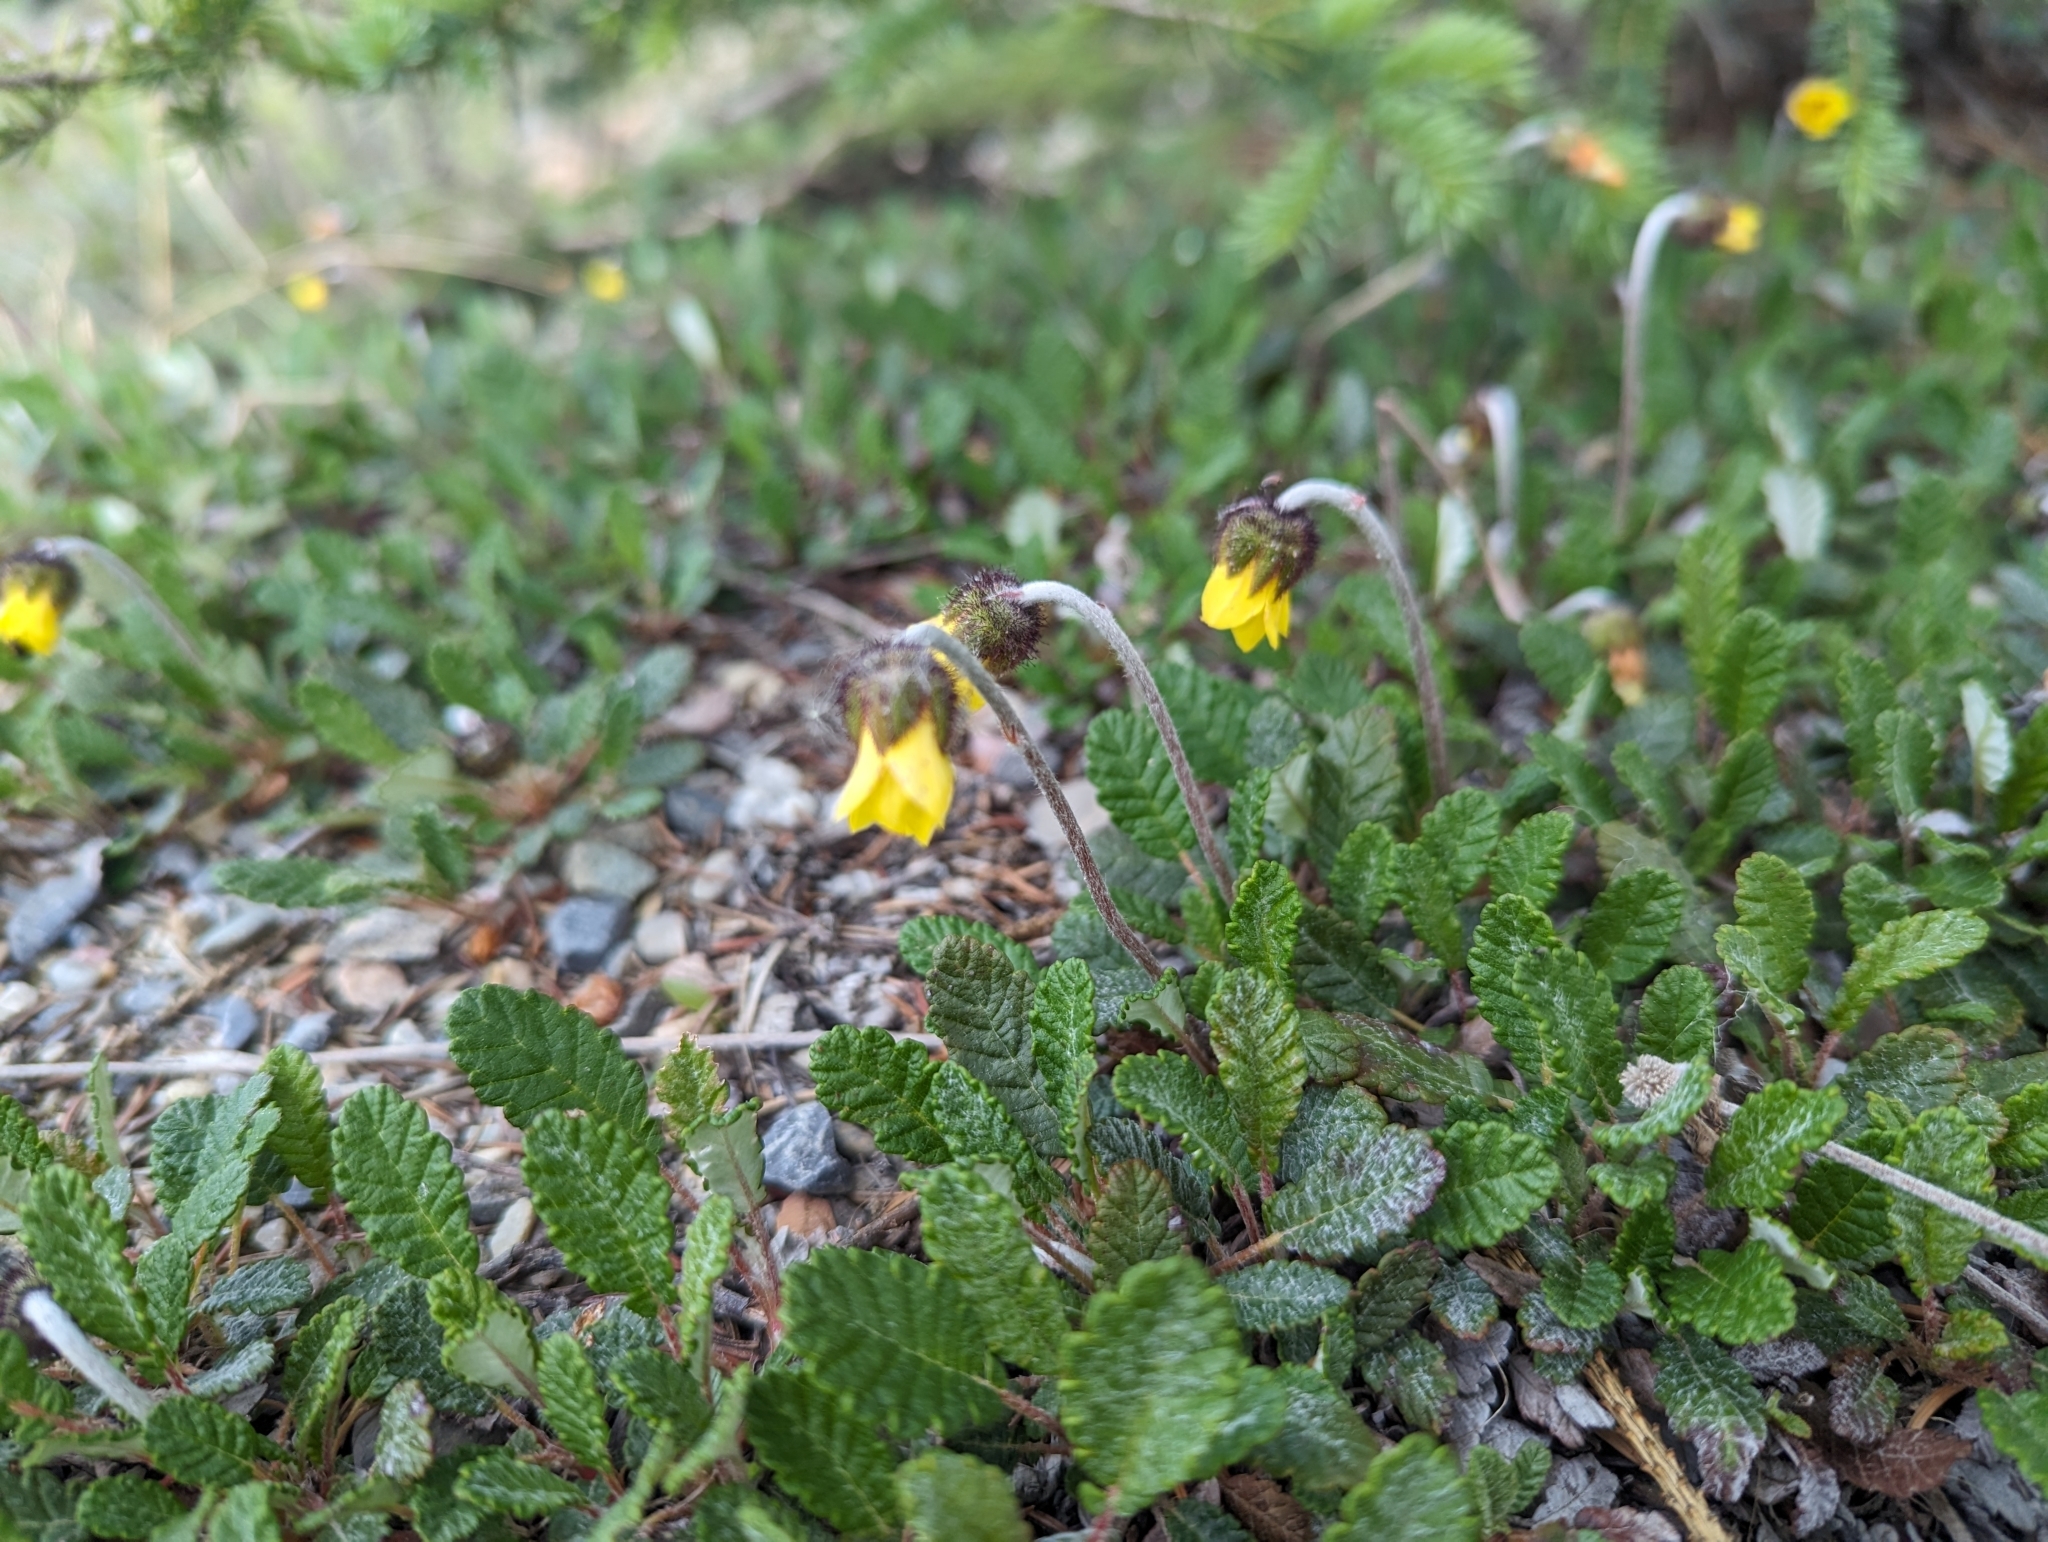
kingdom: Plantae
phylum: Tracheophyta
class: Magnoliopsida
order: Rosales
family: Rosaceae
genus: Dryas
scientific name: Dryas drummondii
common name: Drummond's dryad
